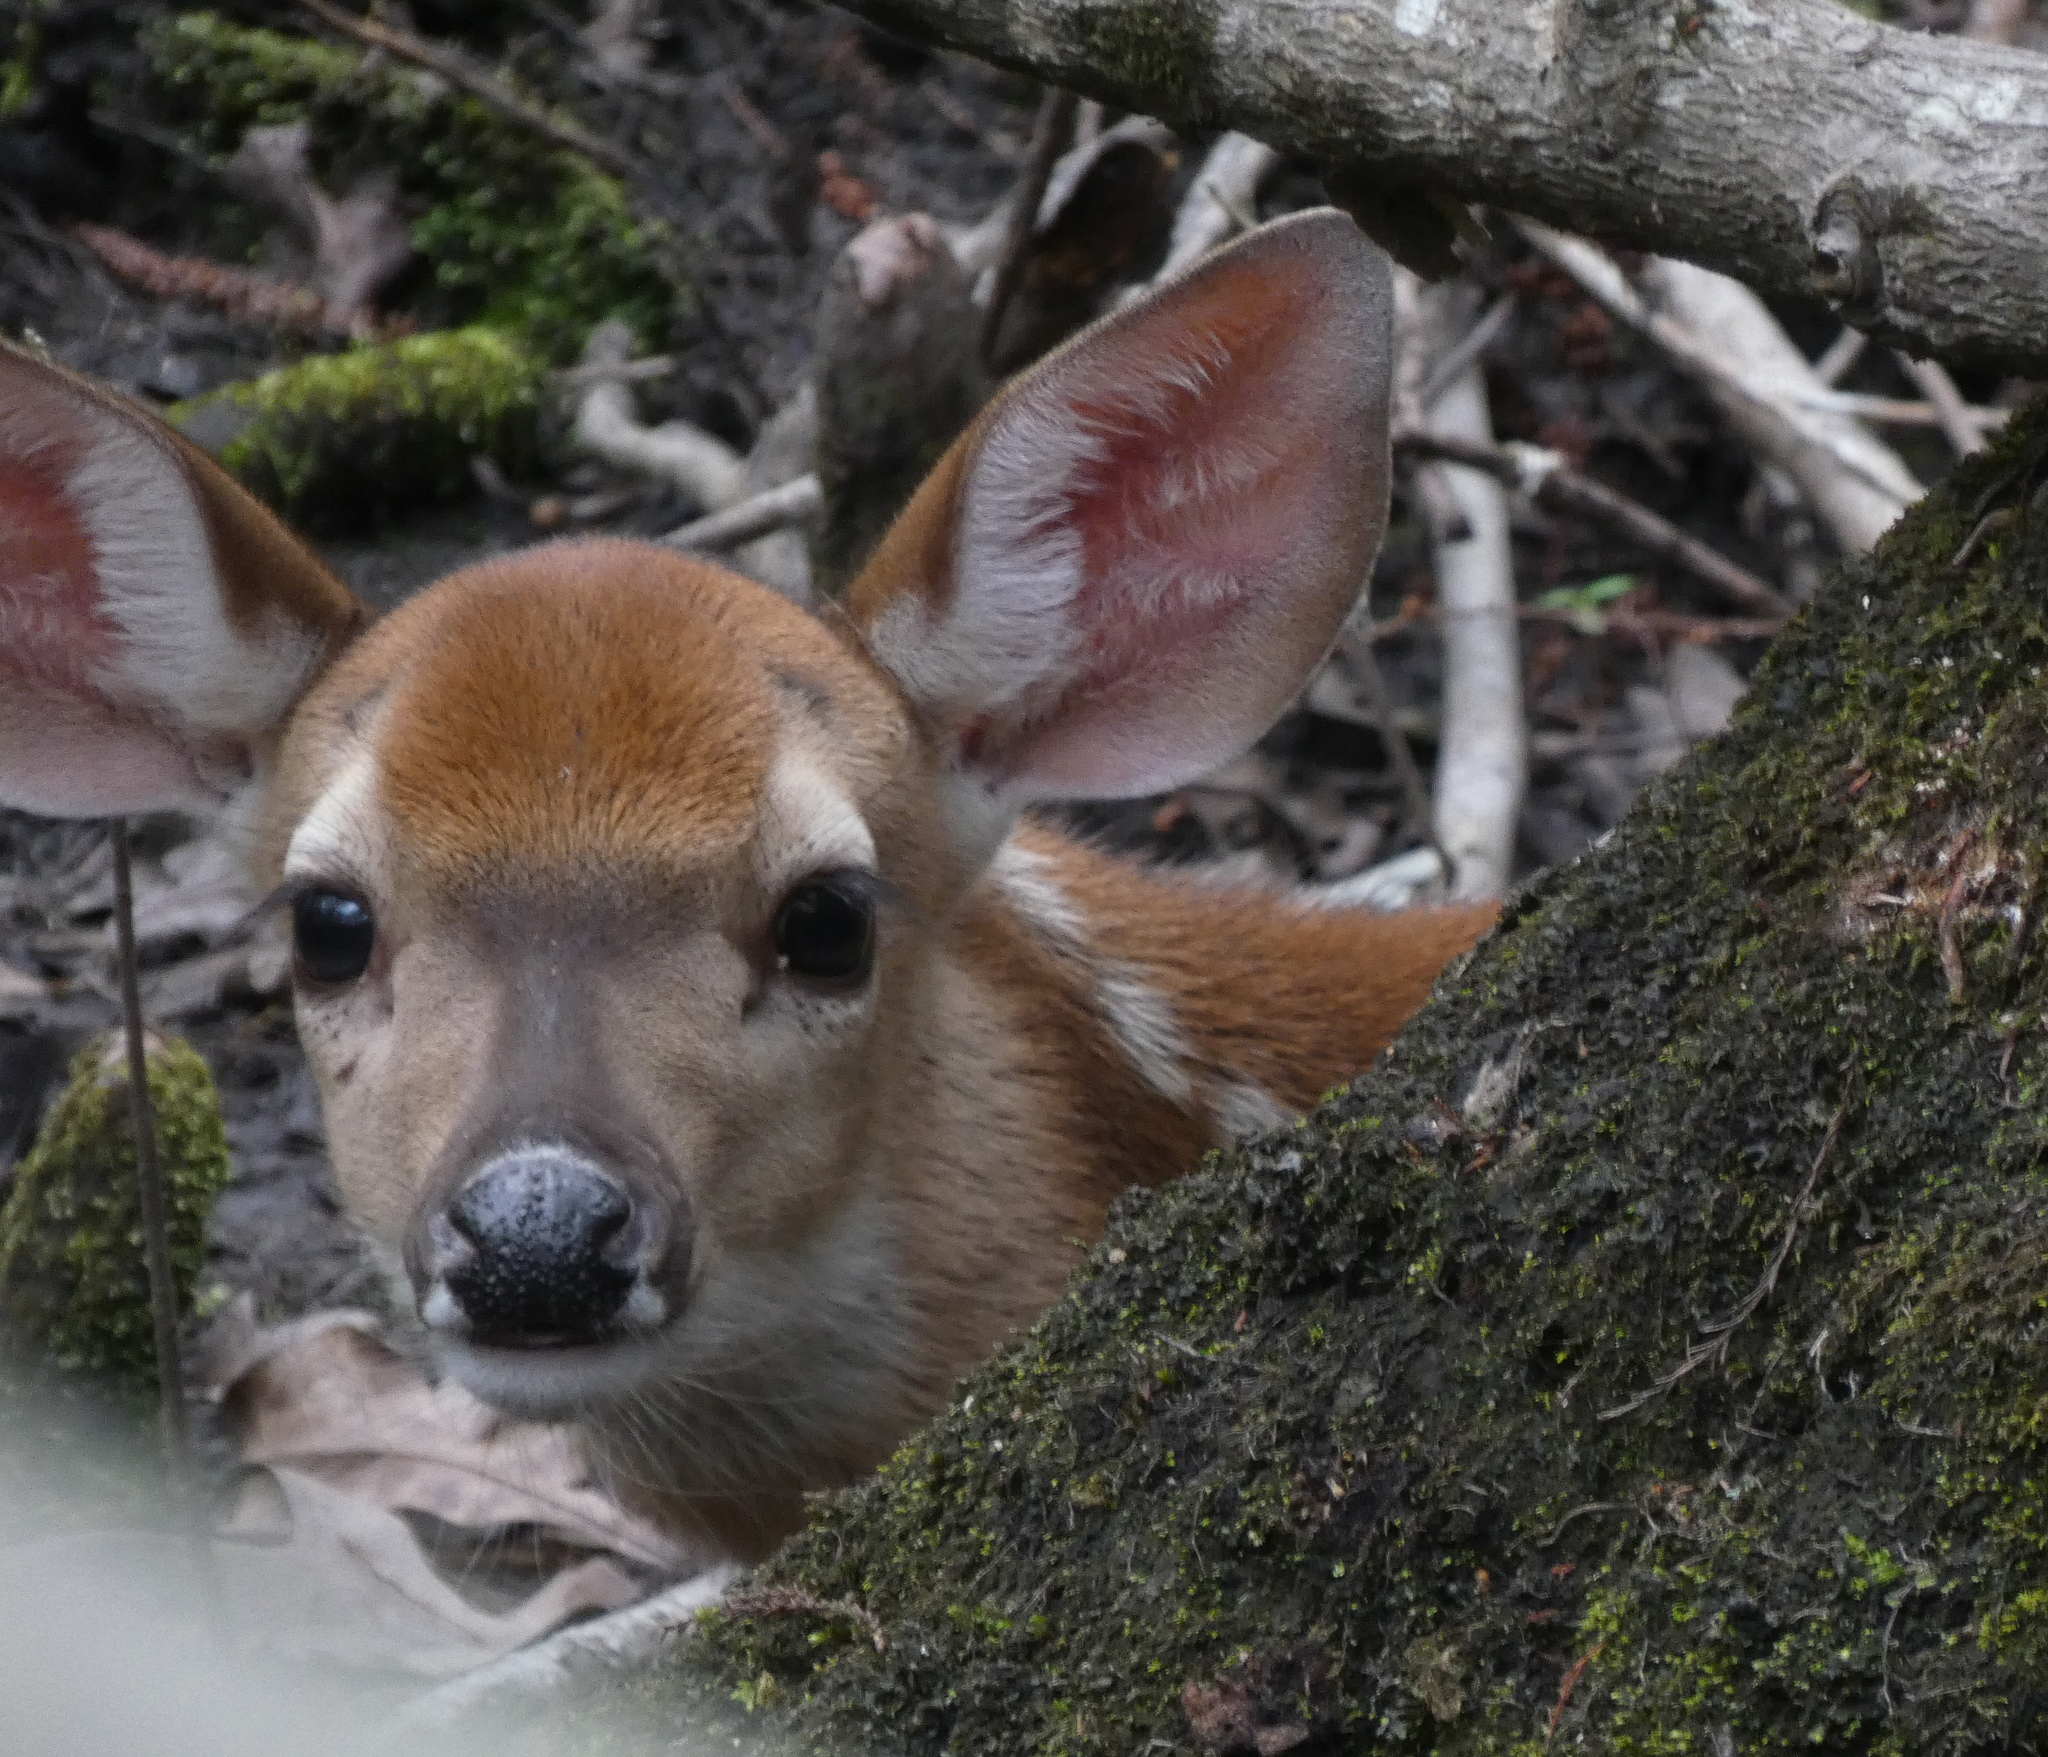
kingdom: Animalia
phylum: Chordata
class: Mammalia
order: Artiodactyla
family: Cervidae
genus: Odocoileus
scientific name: Odocoileus virginianus
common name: White-tailed deer
